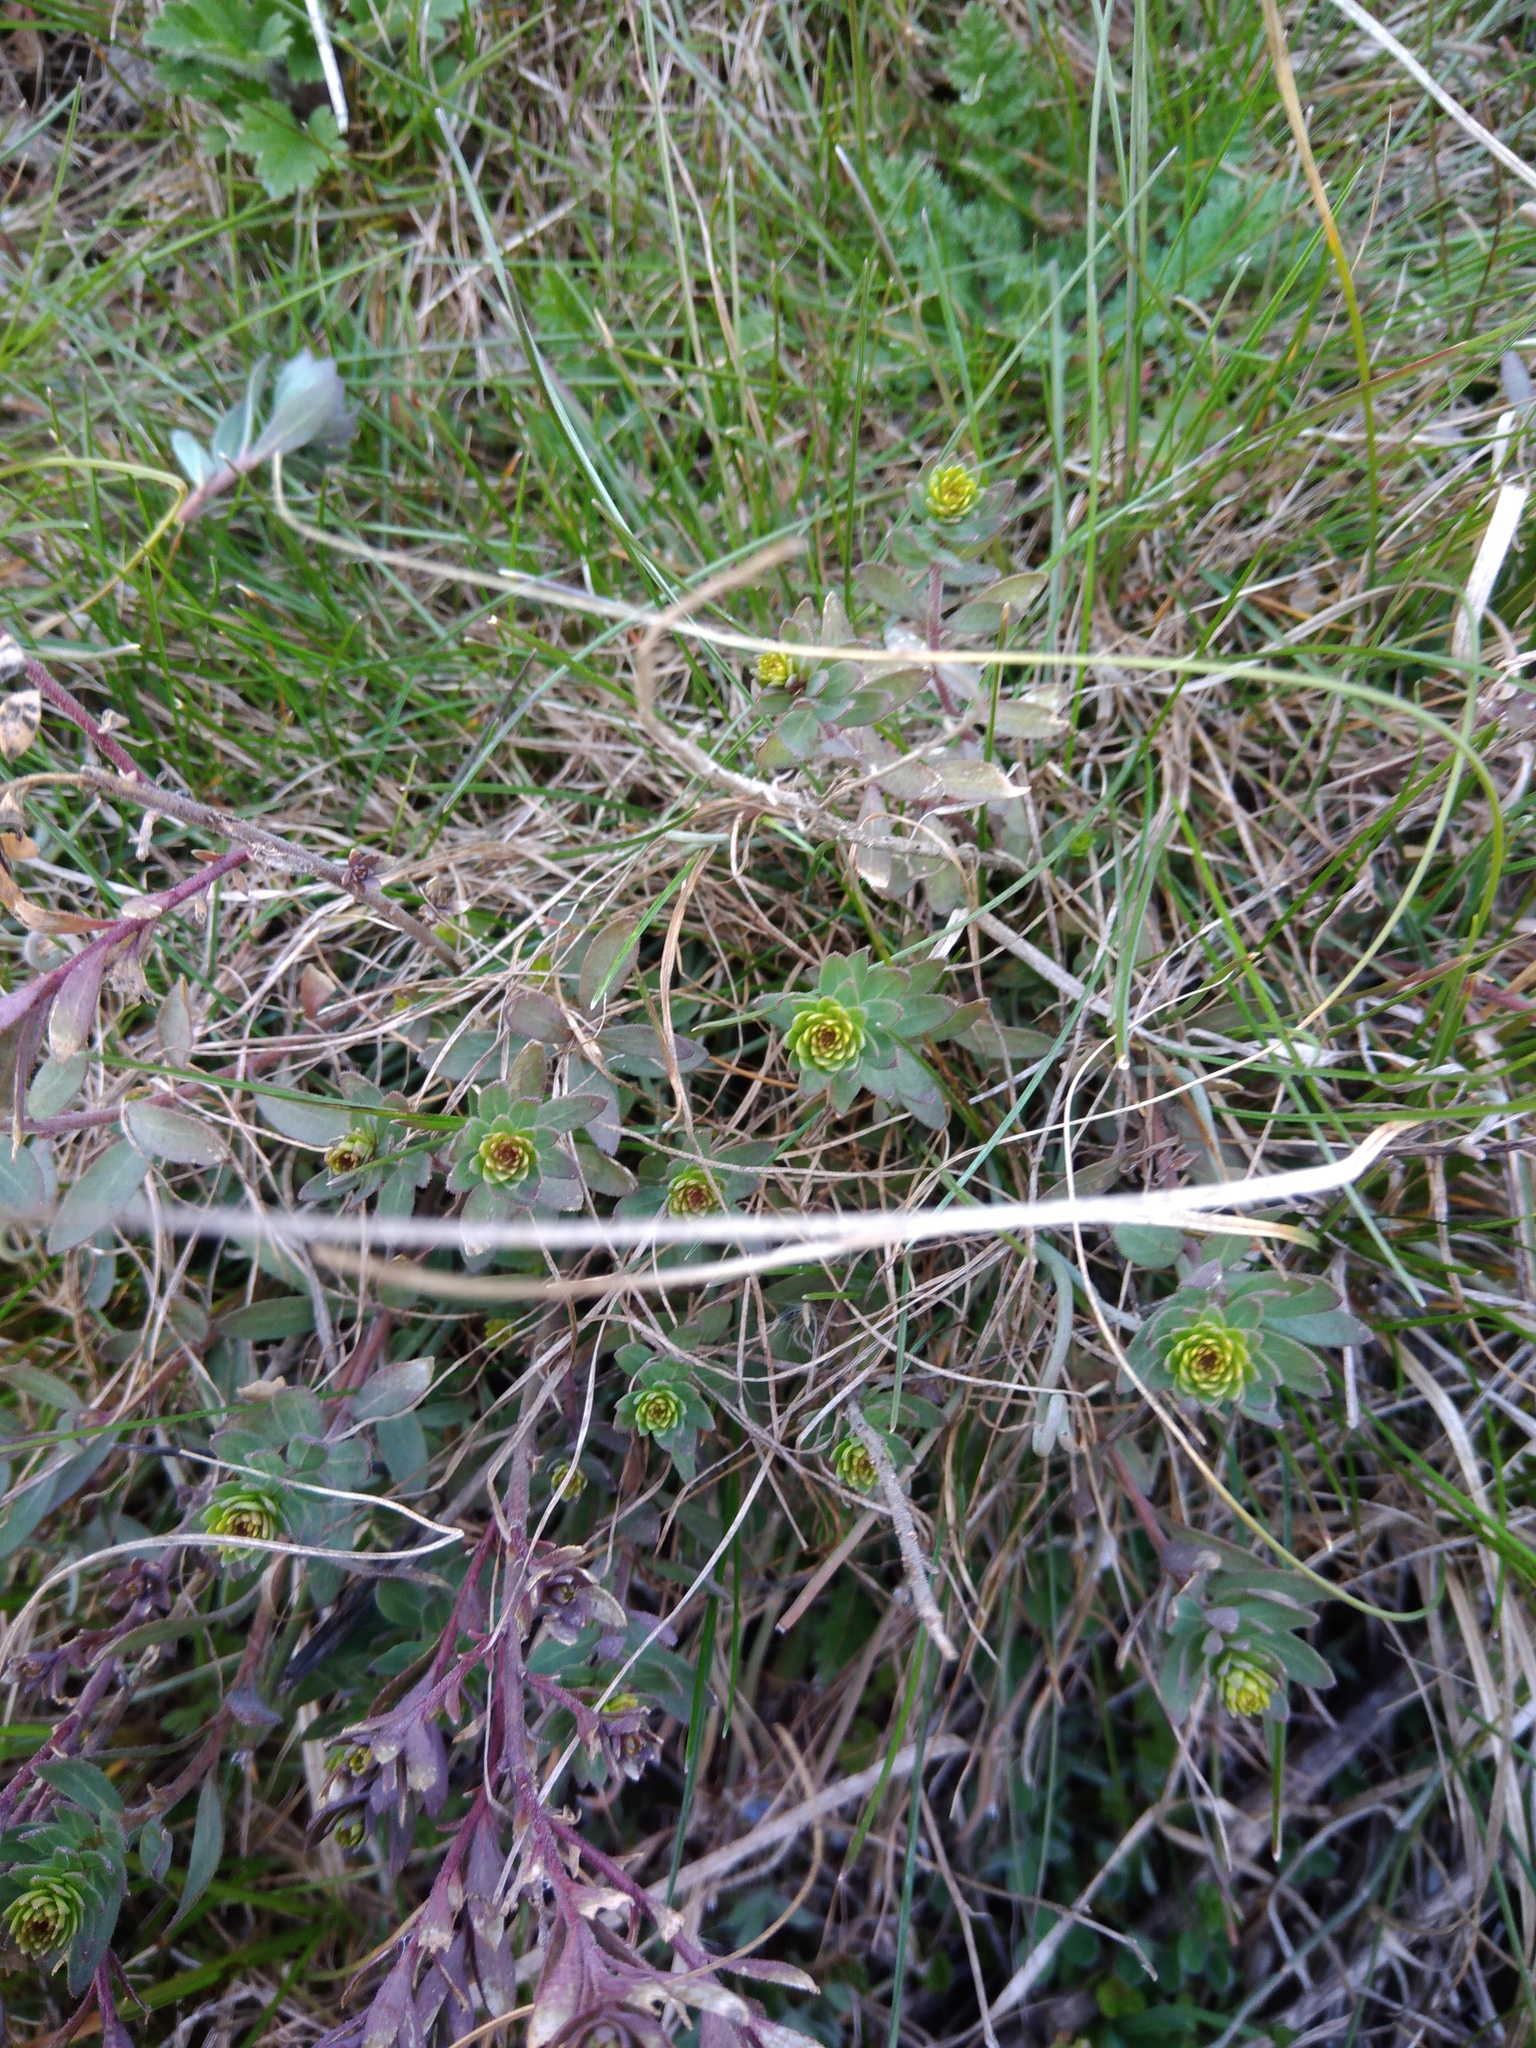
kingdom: Plantae
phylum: Tracheophyta
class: Magnoliopsida
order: Malpighiales
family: Euphorbiaceae
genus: Euphorbia
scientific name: Euphorbia goldei
